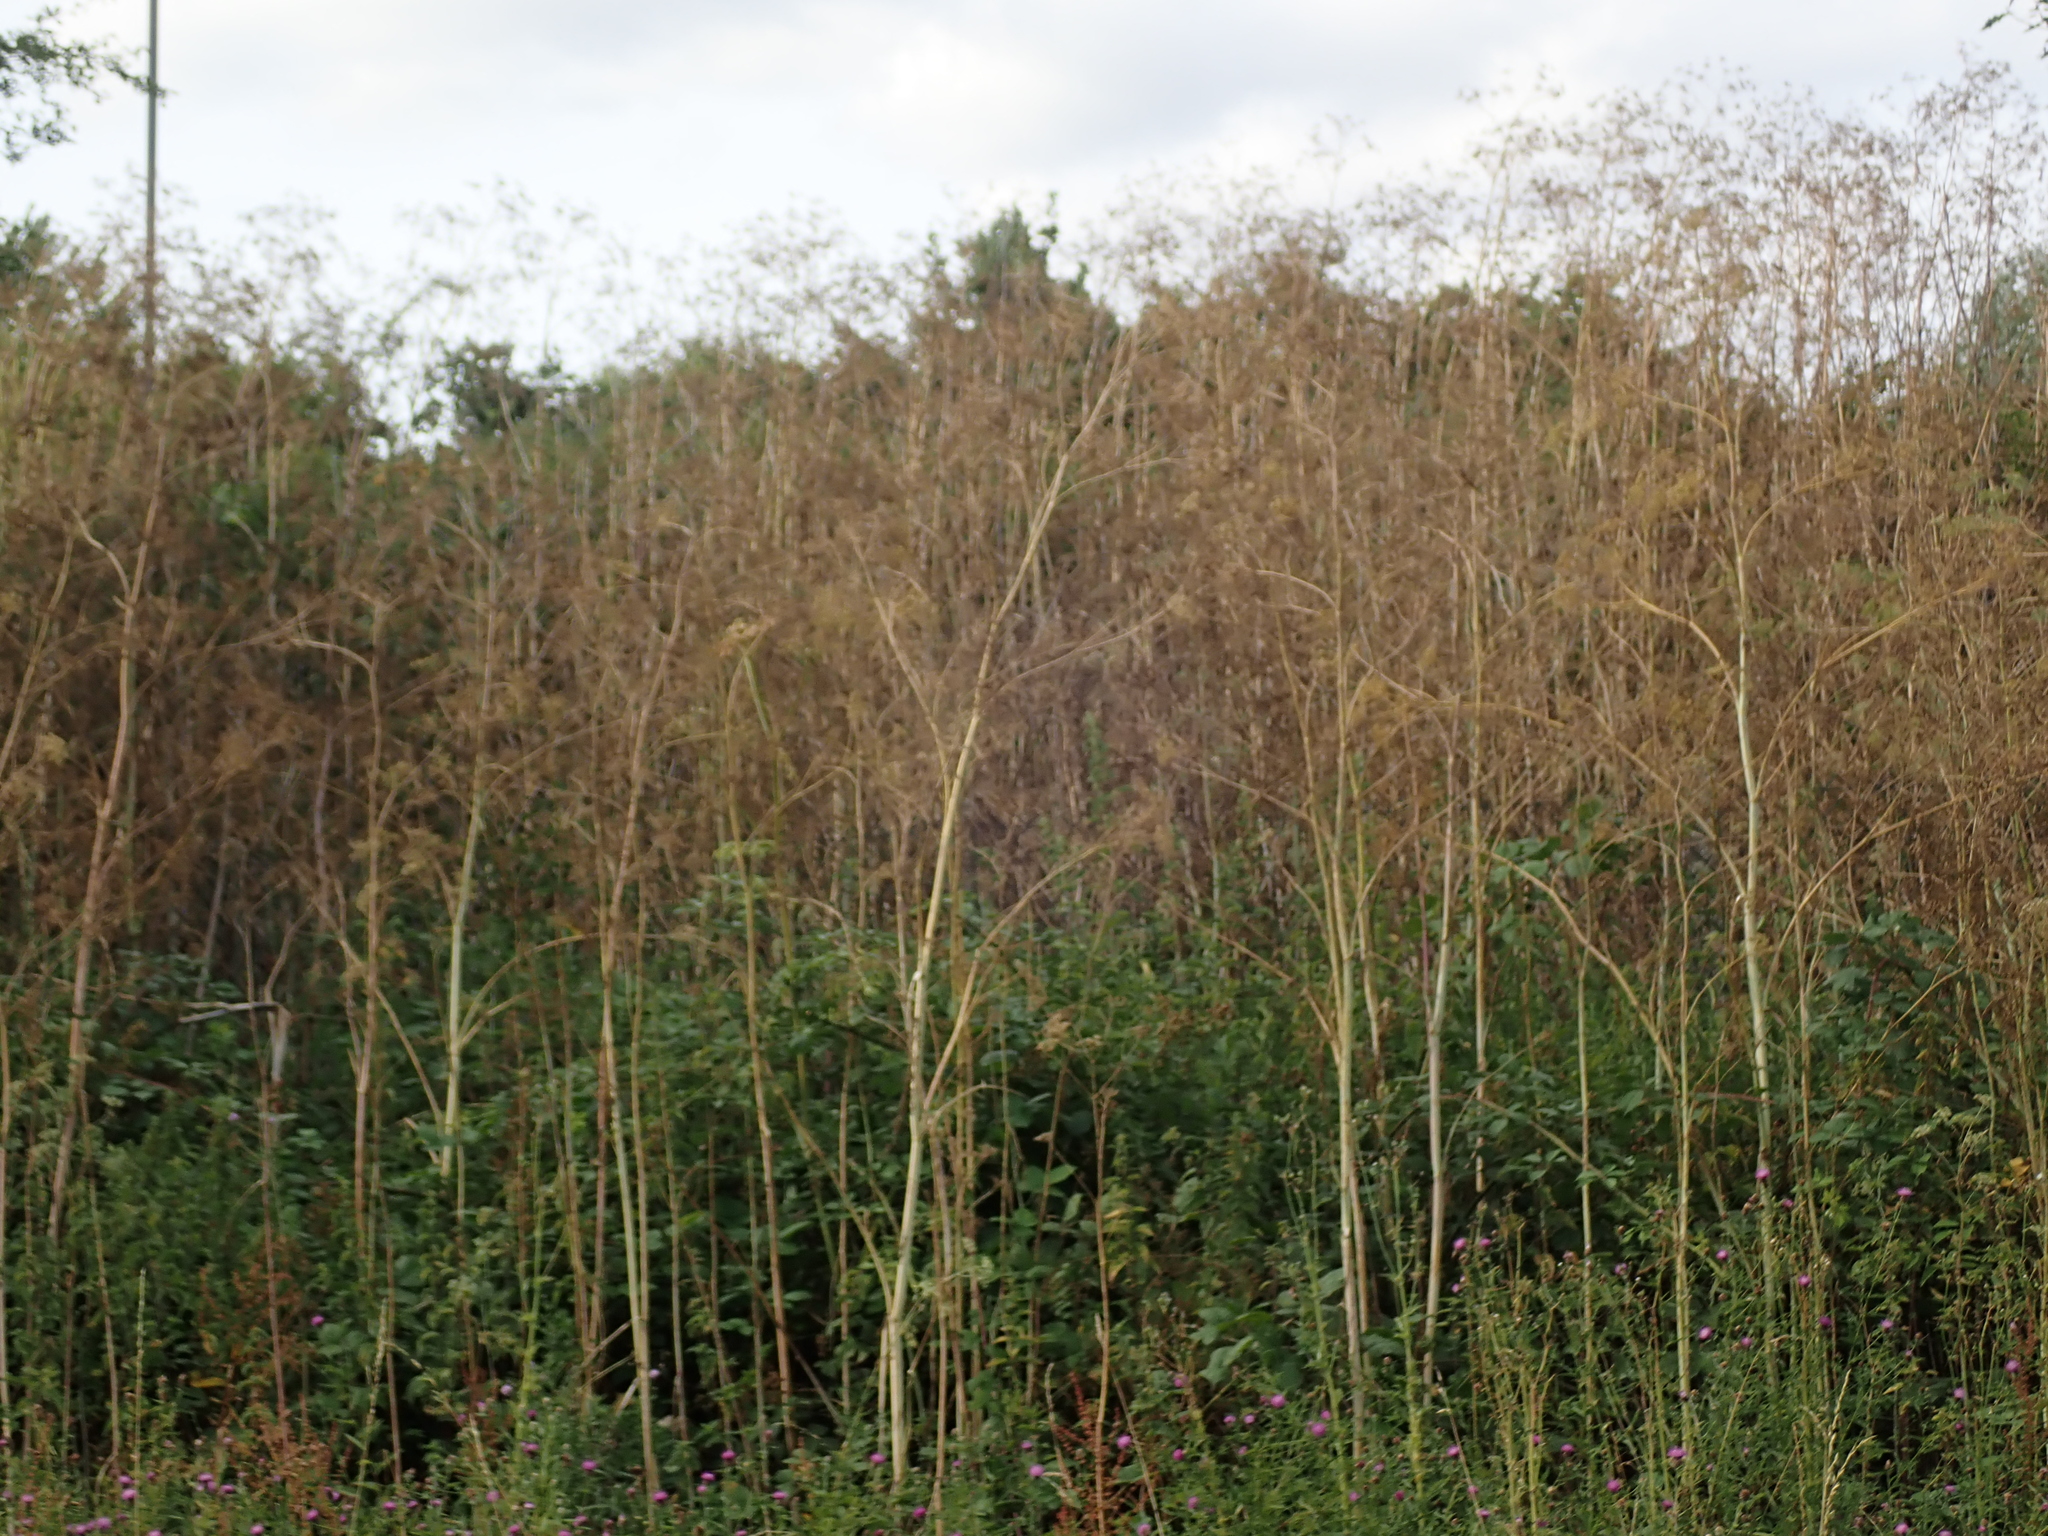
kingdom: Plantae
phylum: Tracheophyta
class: Magnoliopsida
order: Apiales
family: Apiaceae
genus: Conium
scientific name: Conium maculatum
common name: Hemlock
